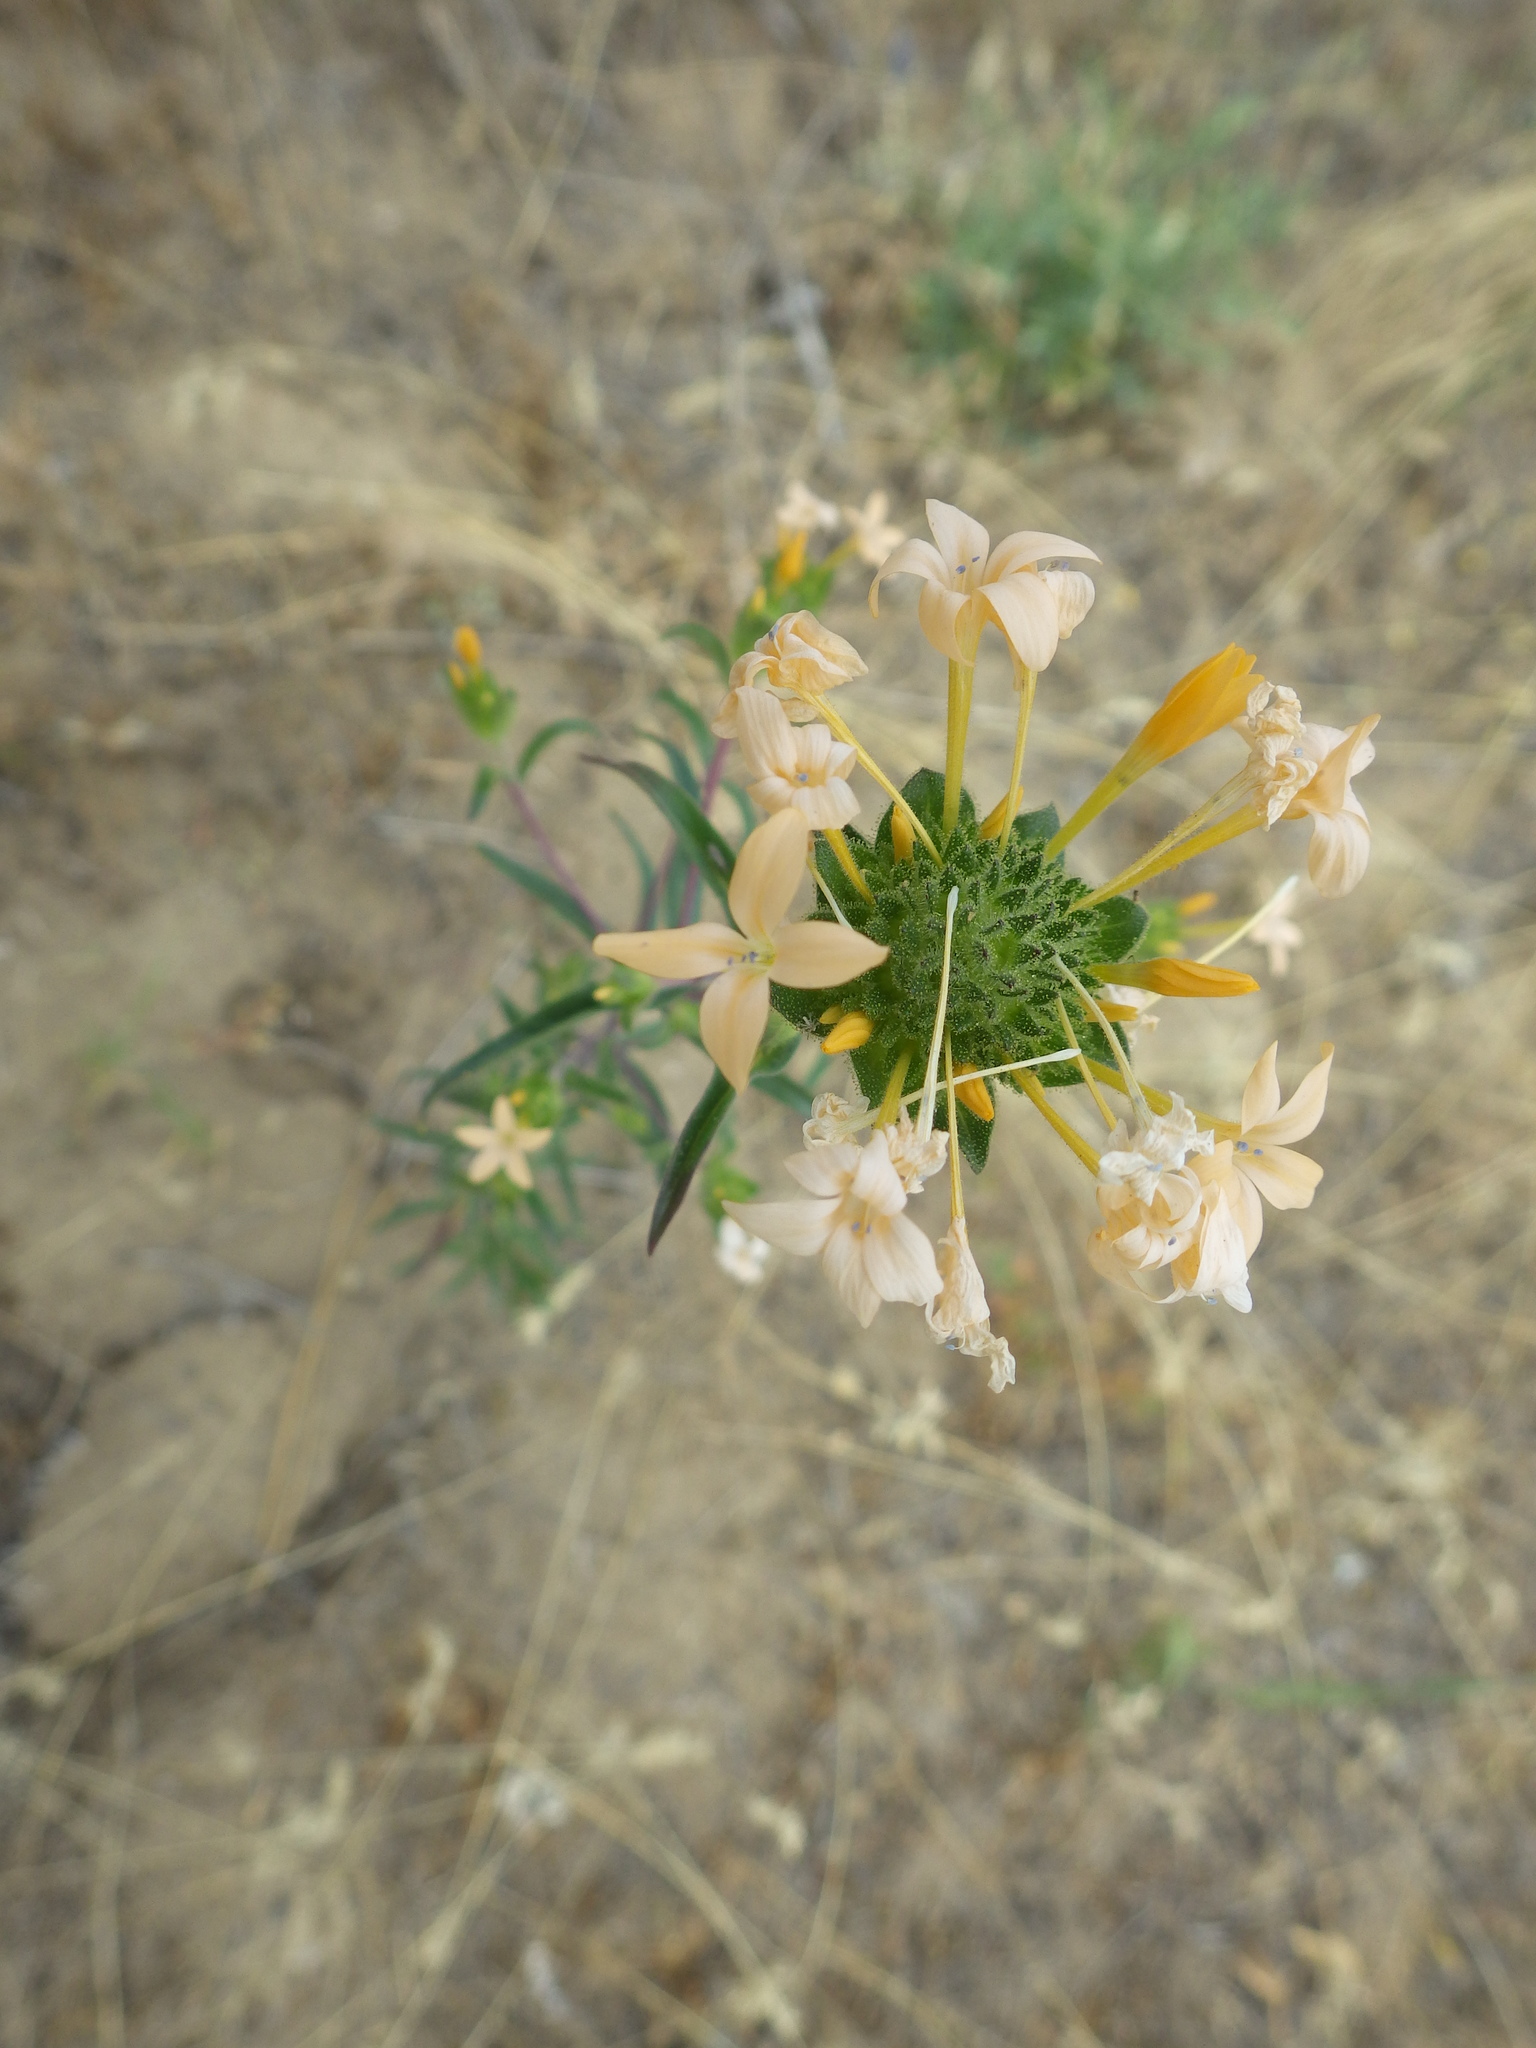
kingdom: Plantae
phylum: Tracheophyta
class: Magnoliopsida
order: Ericales
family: Polemoniaceae
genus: Collomia
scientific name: Collomia grandiflora
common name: California strawflower
